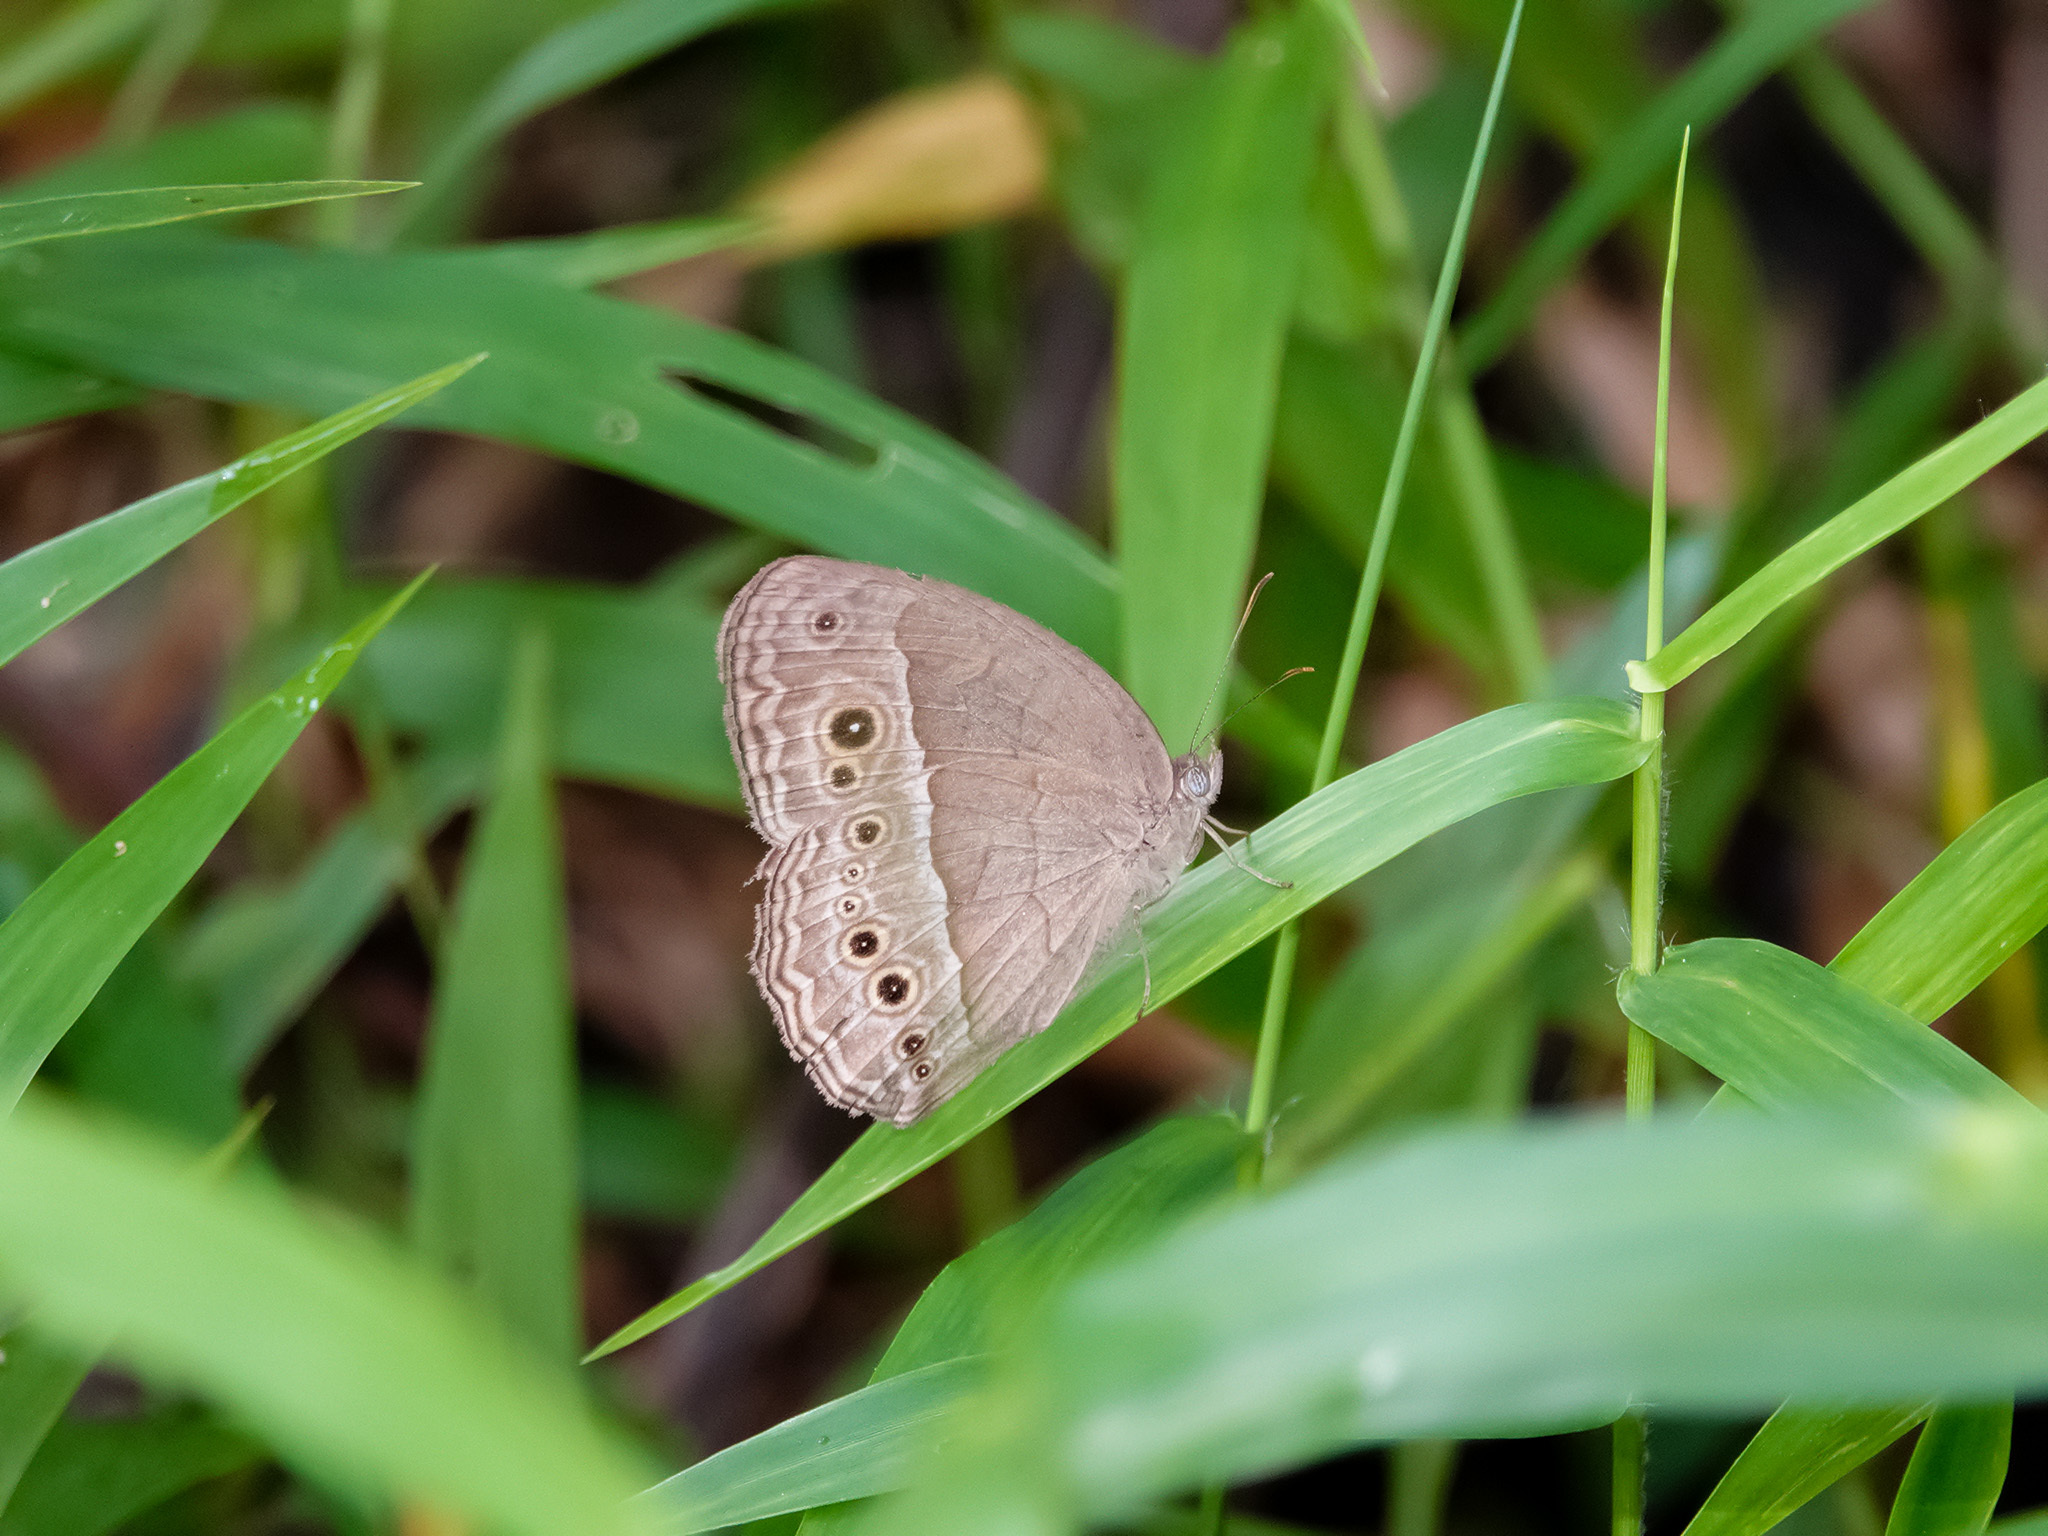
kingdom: Animalia
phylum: Arthropoda
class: Insecta
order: Lepidoptera
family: Nymphalidae
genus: Mycalesis
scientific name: Mycalesis perseoides
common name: Burmese bushbrown
